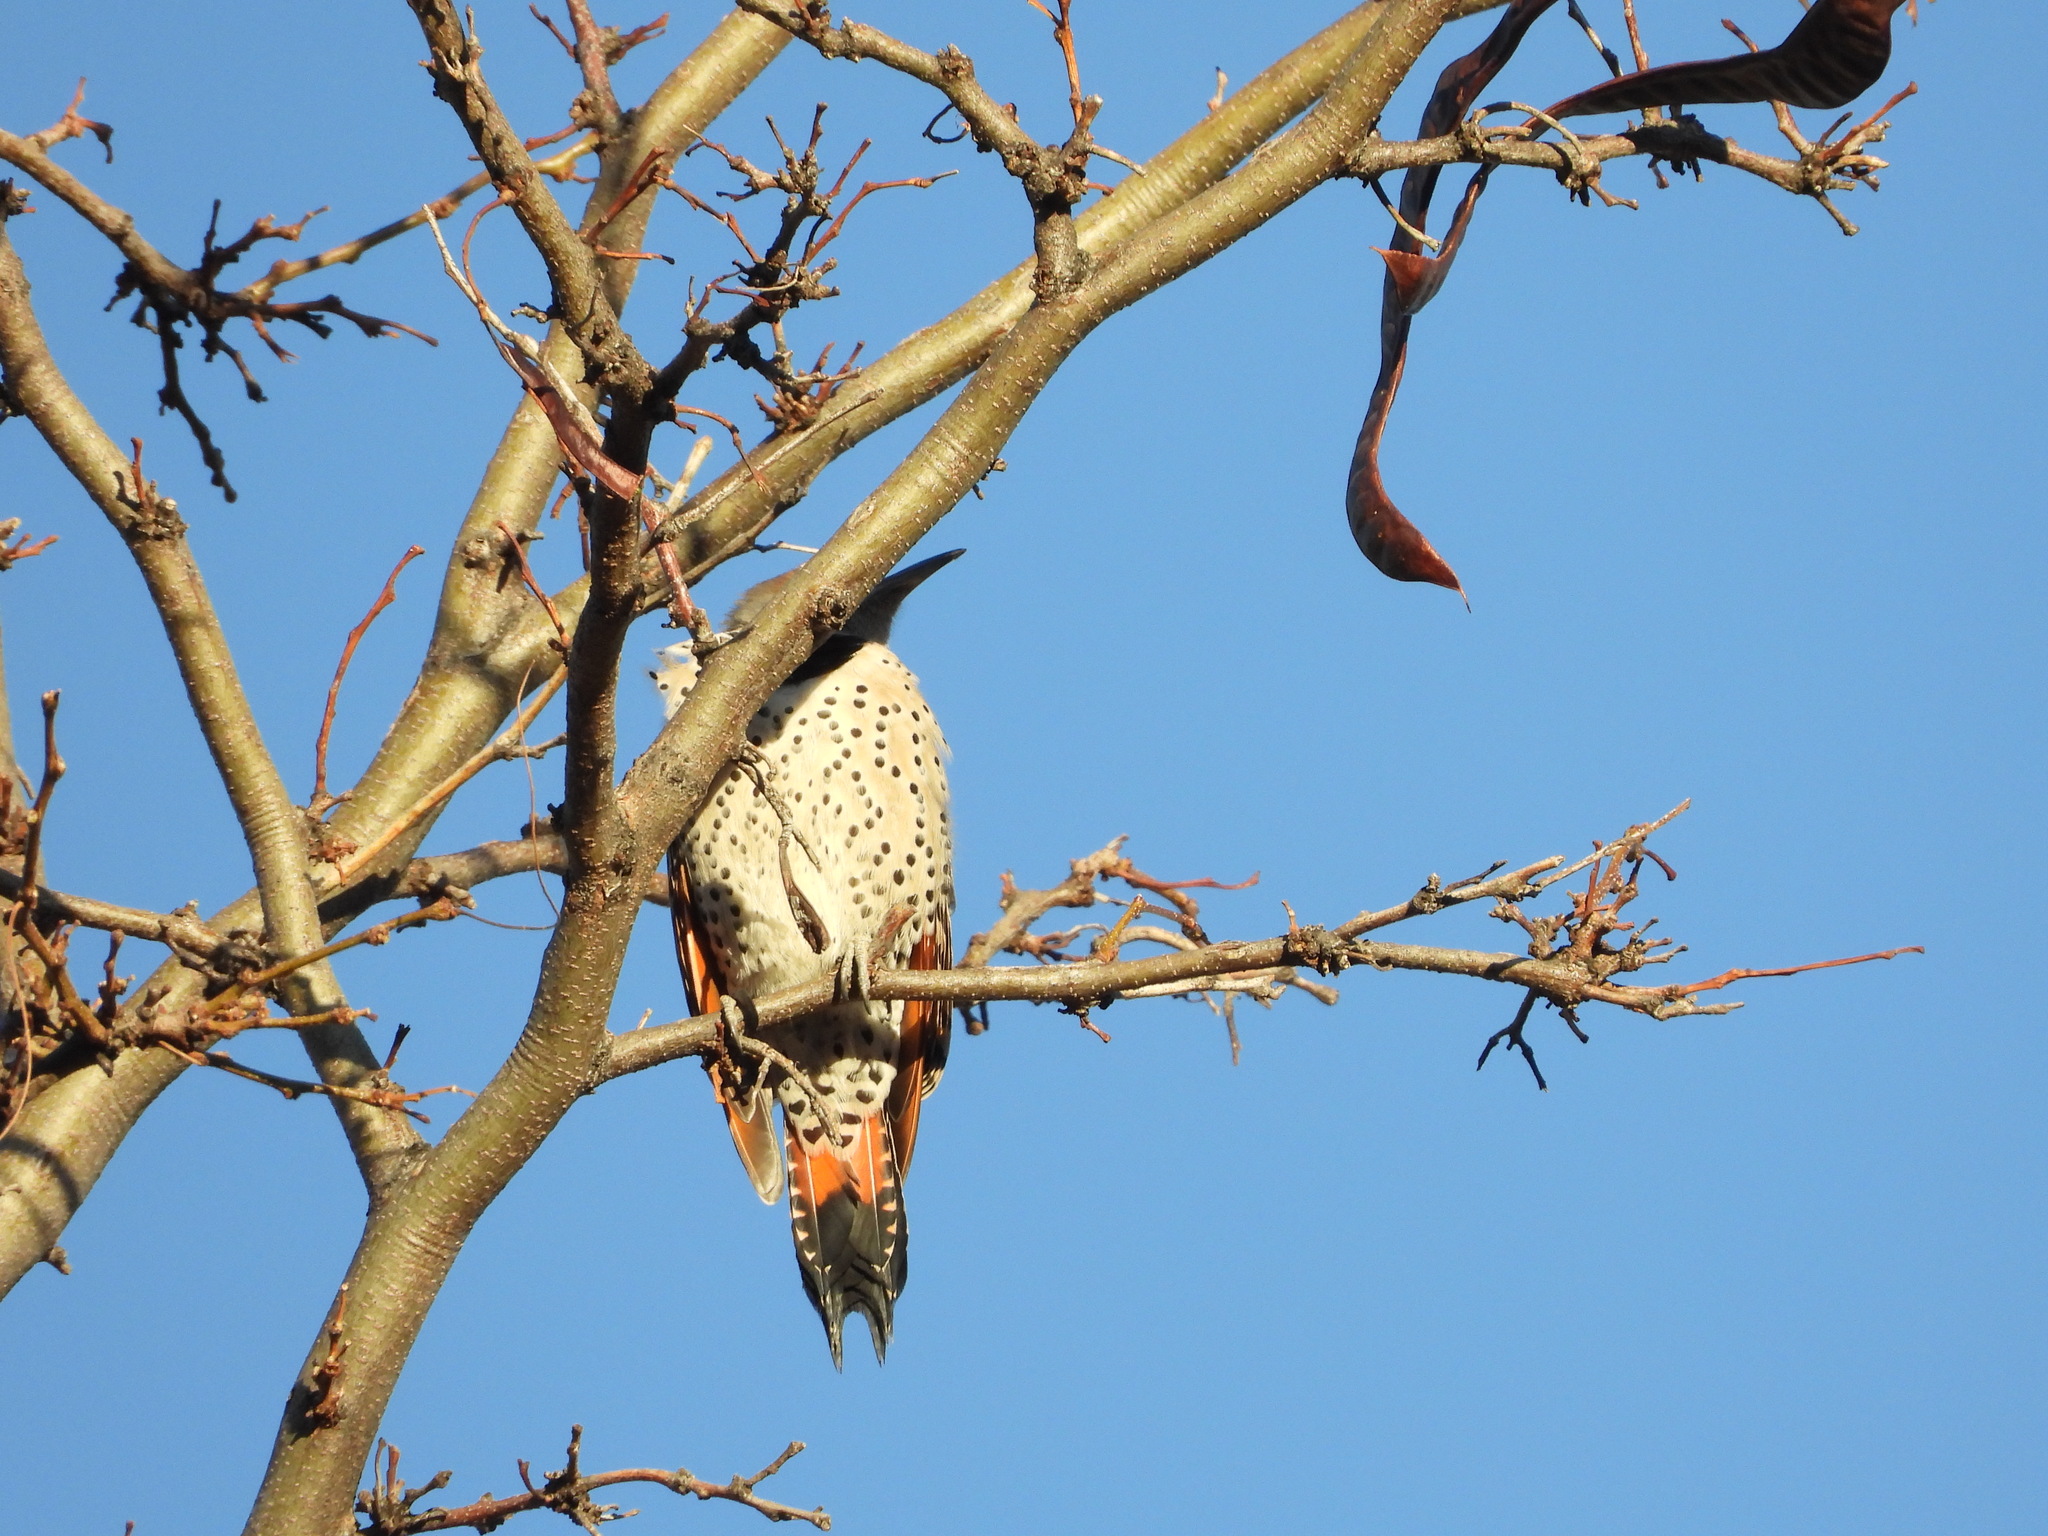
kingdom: Animalia
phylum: Chordata
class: Aves
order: Piciformes
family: Picidae
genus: Colaptes
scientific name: Colaptes auratus
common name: Northern flicker
